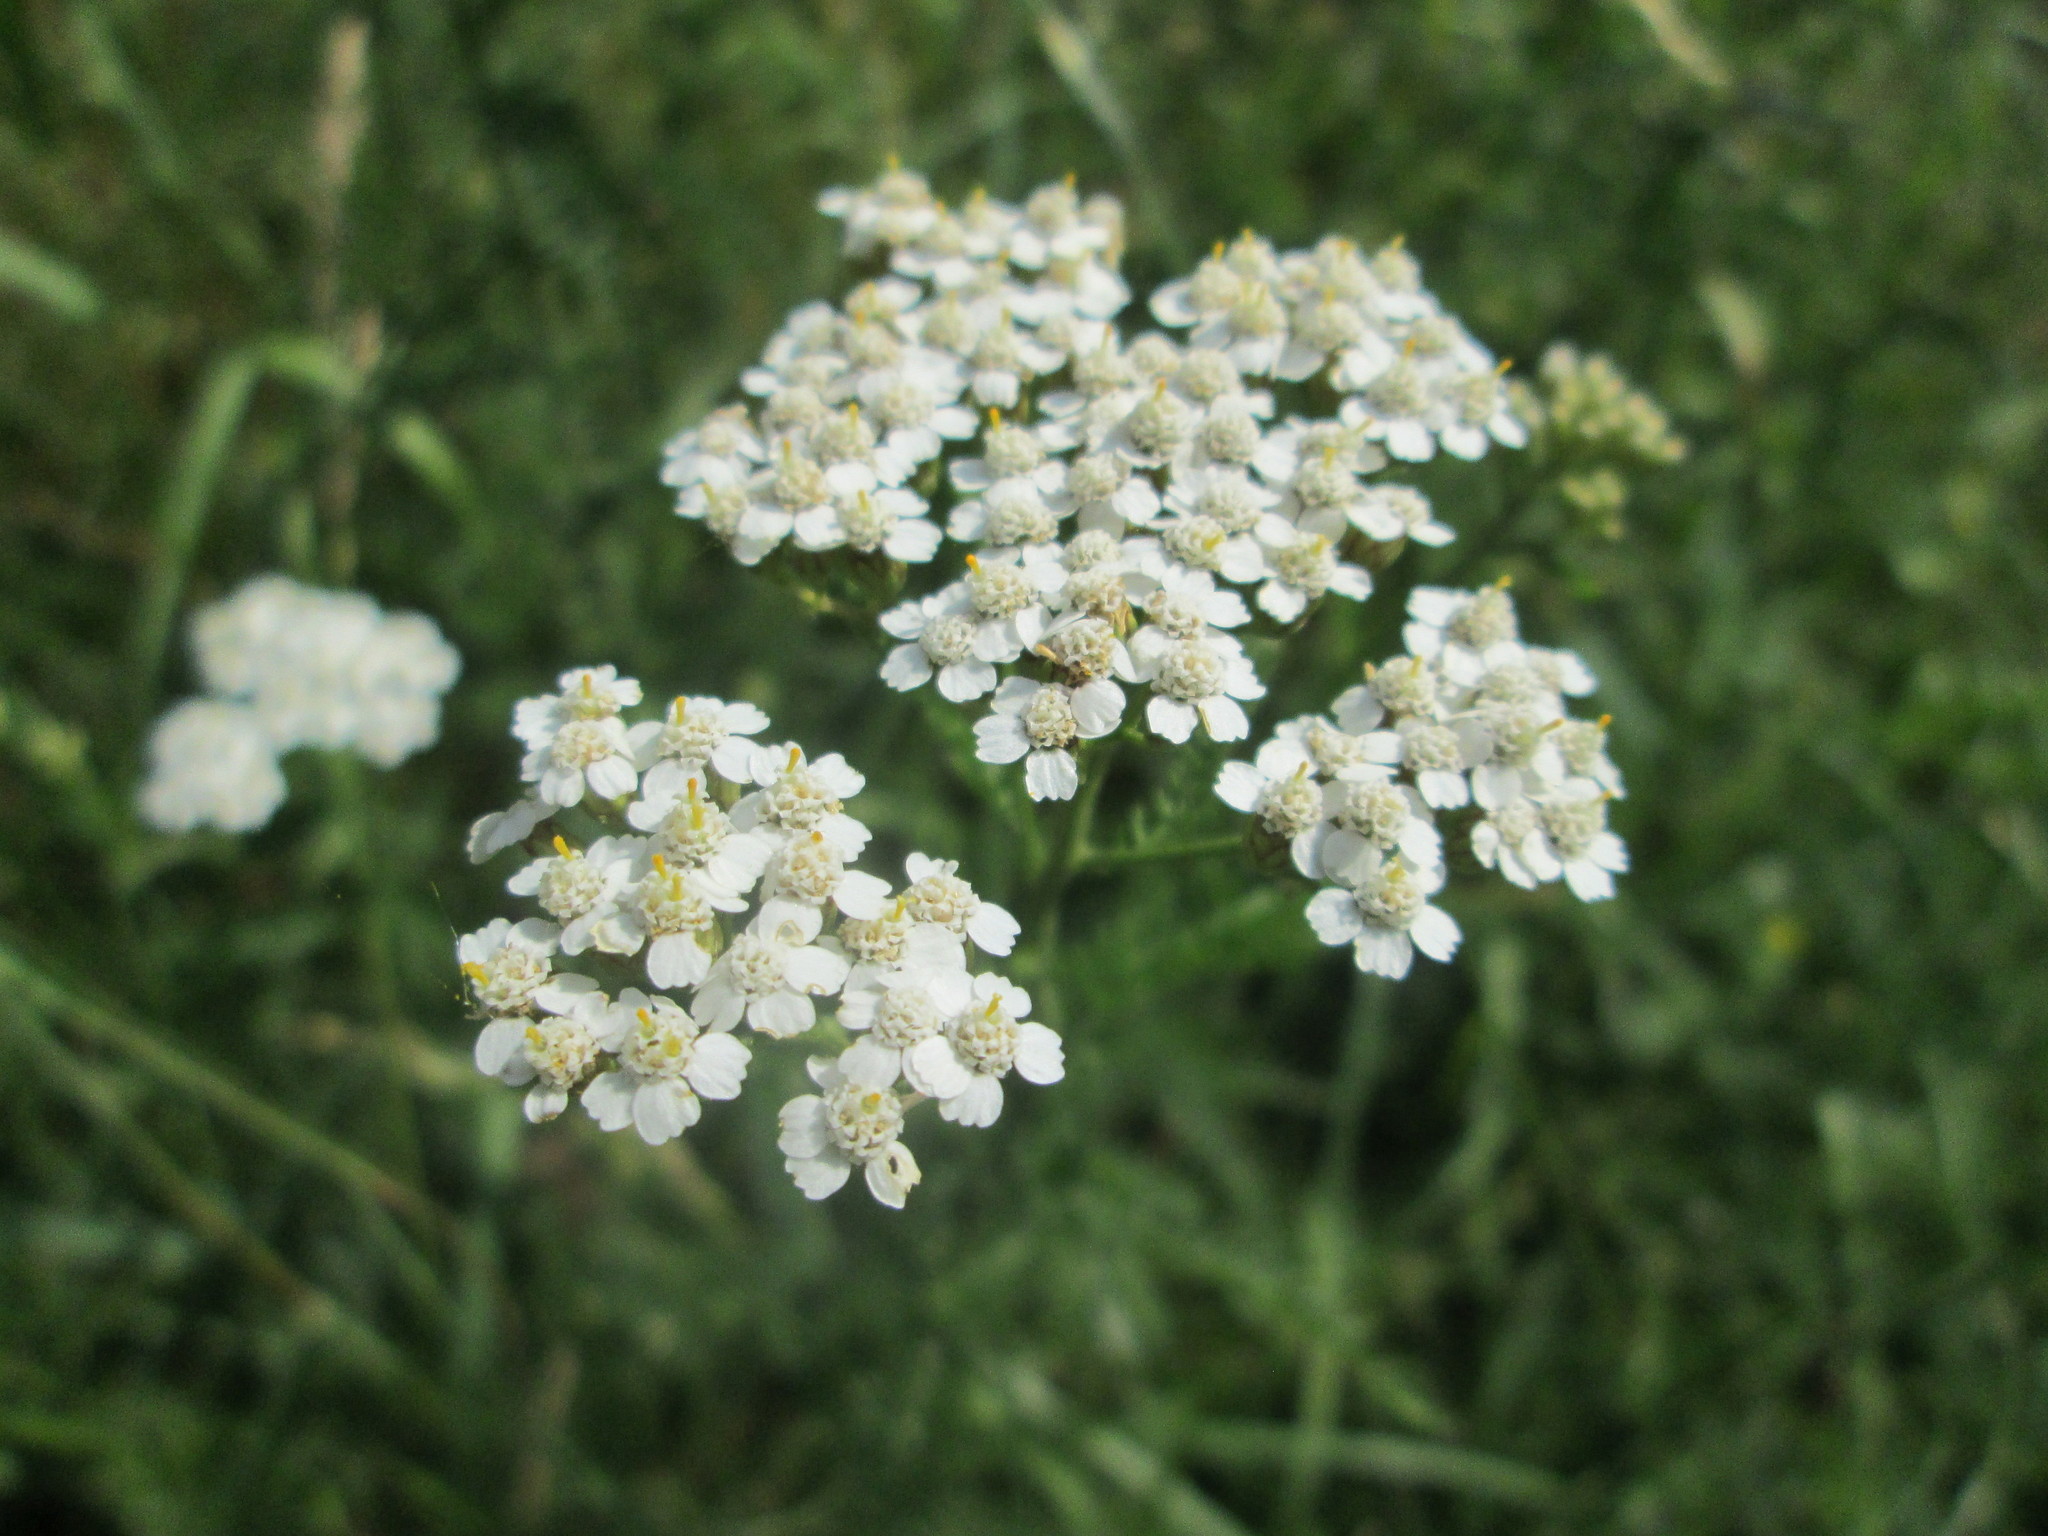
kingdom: Plantae
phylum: Tracheophyta
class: Magnoliopsida
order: Asterales
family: Asteraceae
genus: Achillea
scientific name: Achillea millefolium
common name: Yarrow
